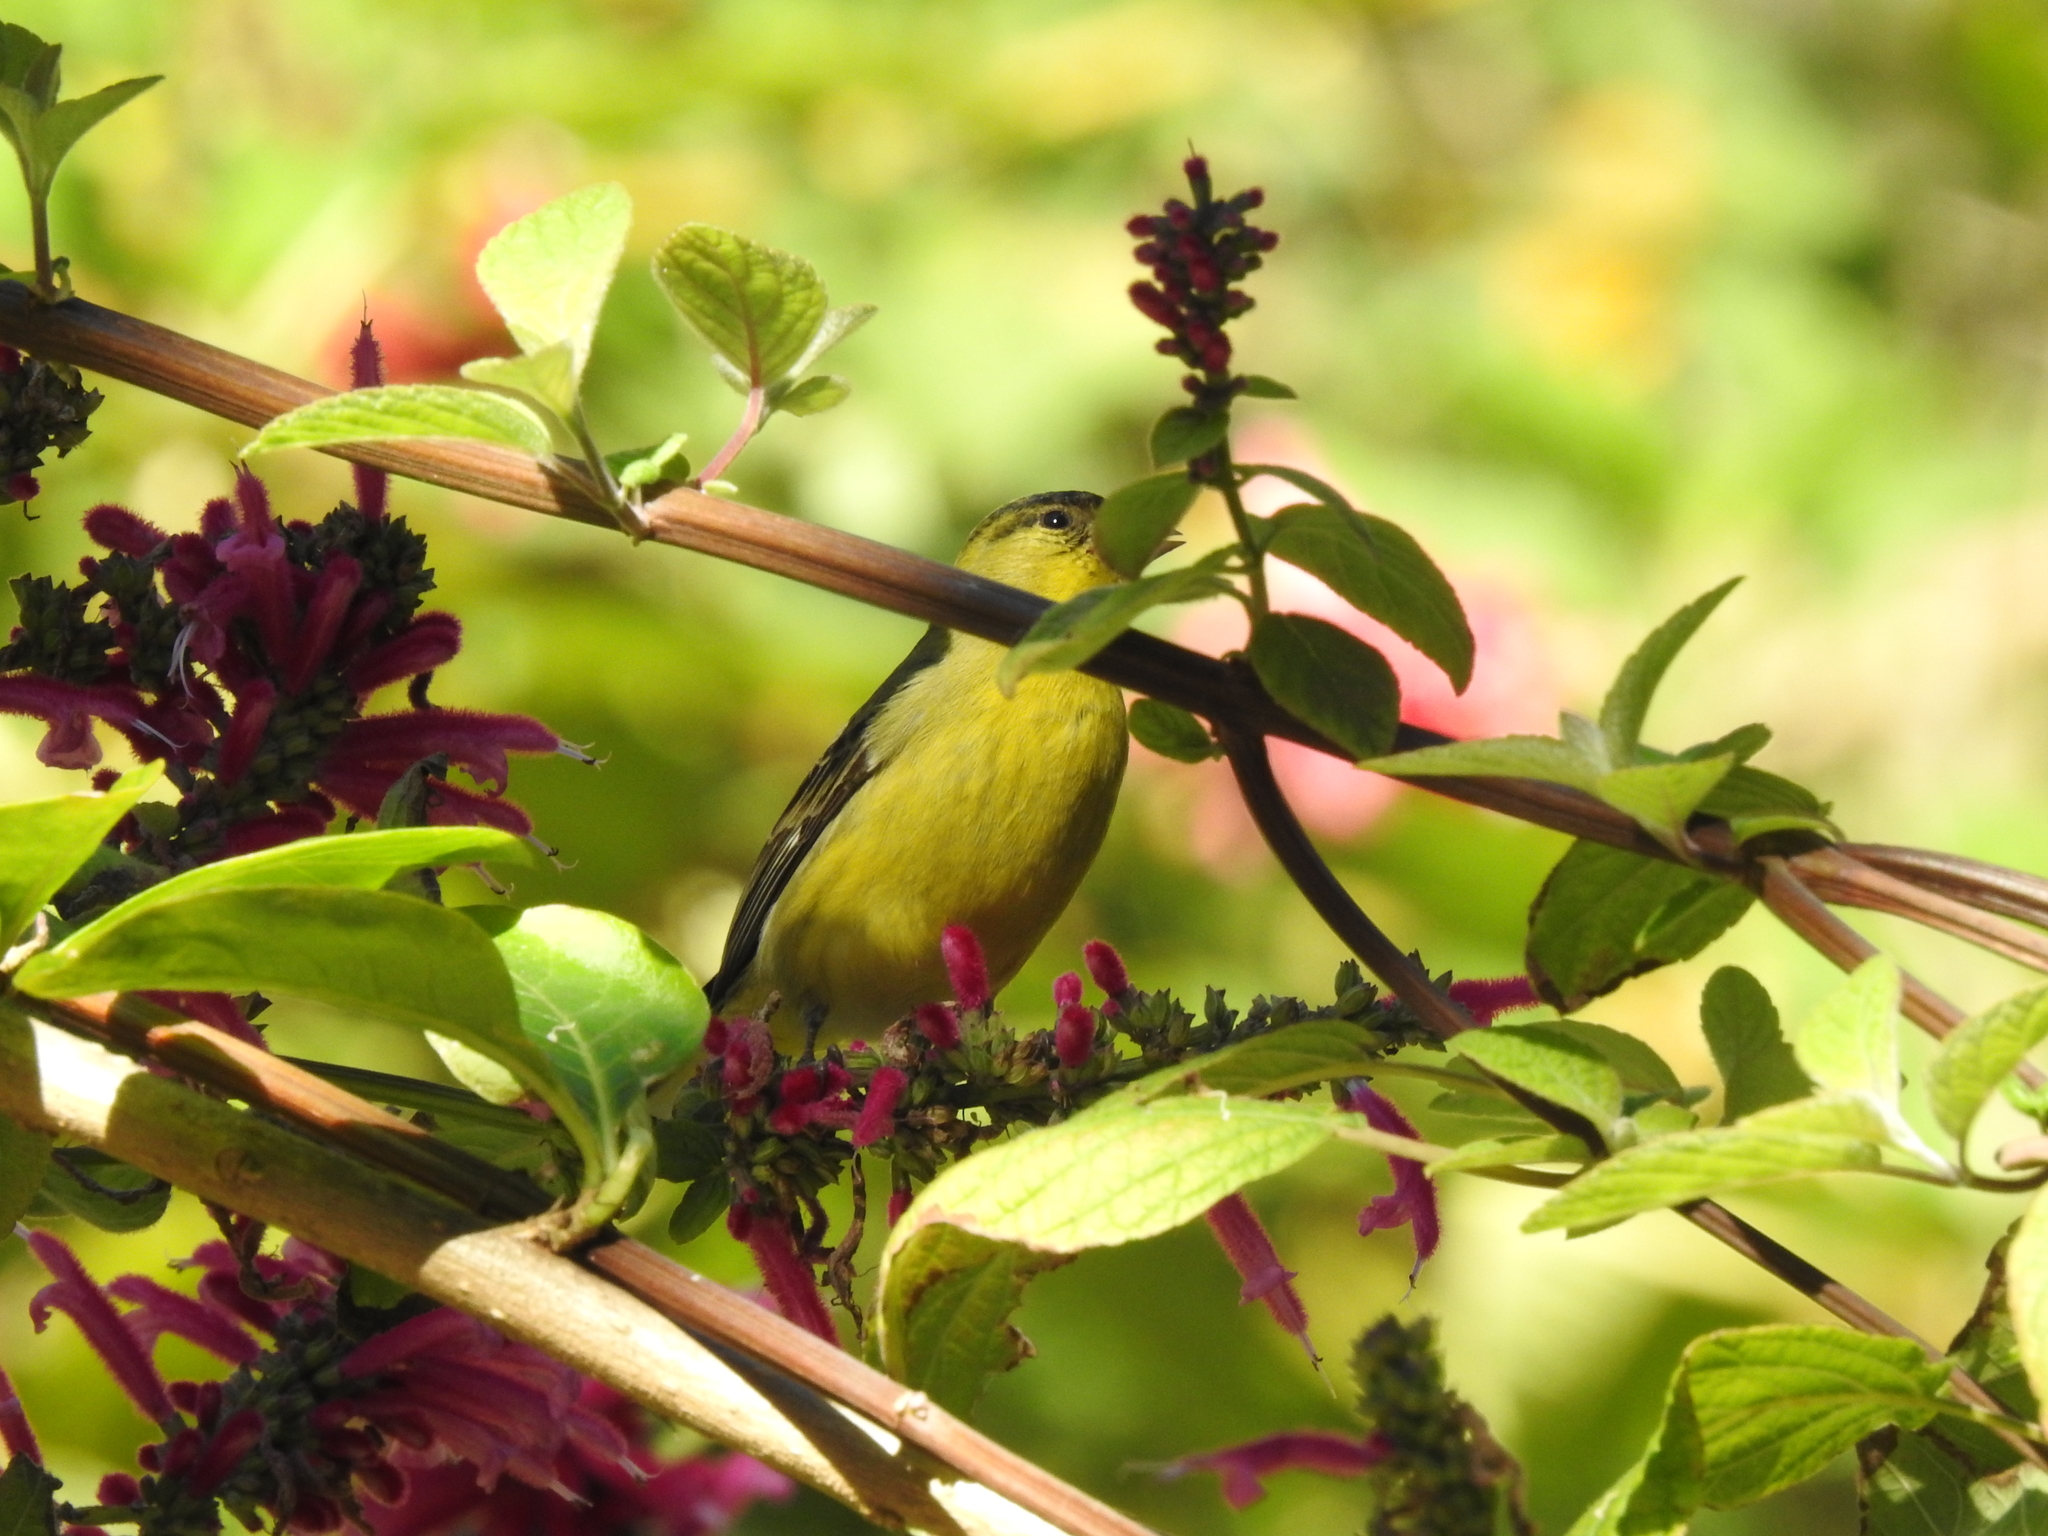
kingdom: Animalia
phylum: Chordata
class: Aves
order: Passeriformes
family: Fringillidae
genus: Spinus
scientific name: Spinus psaltria
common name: Lesser goldfinch
